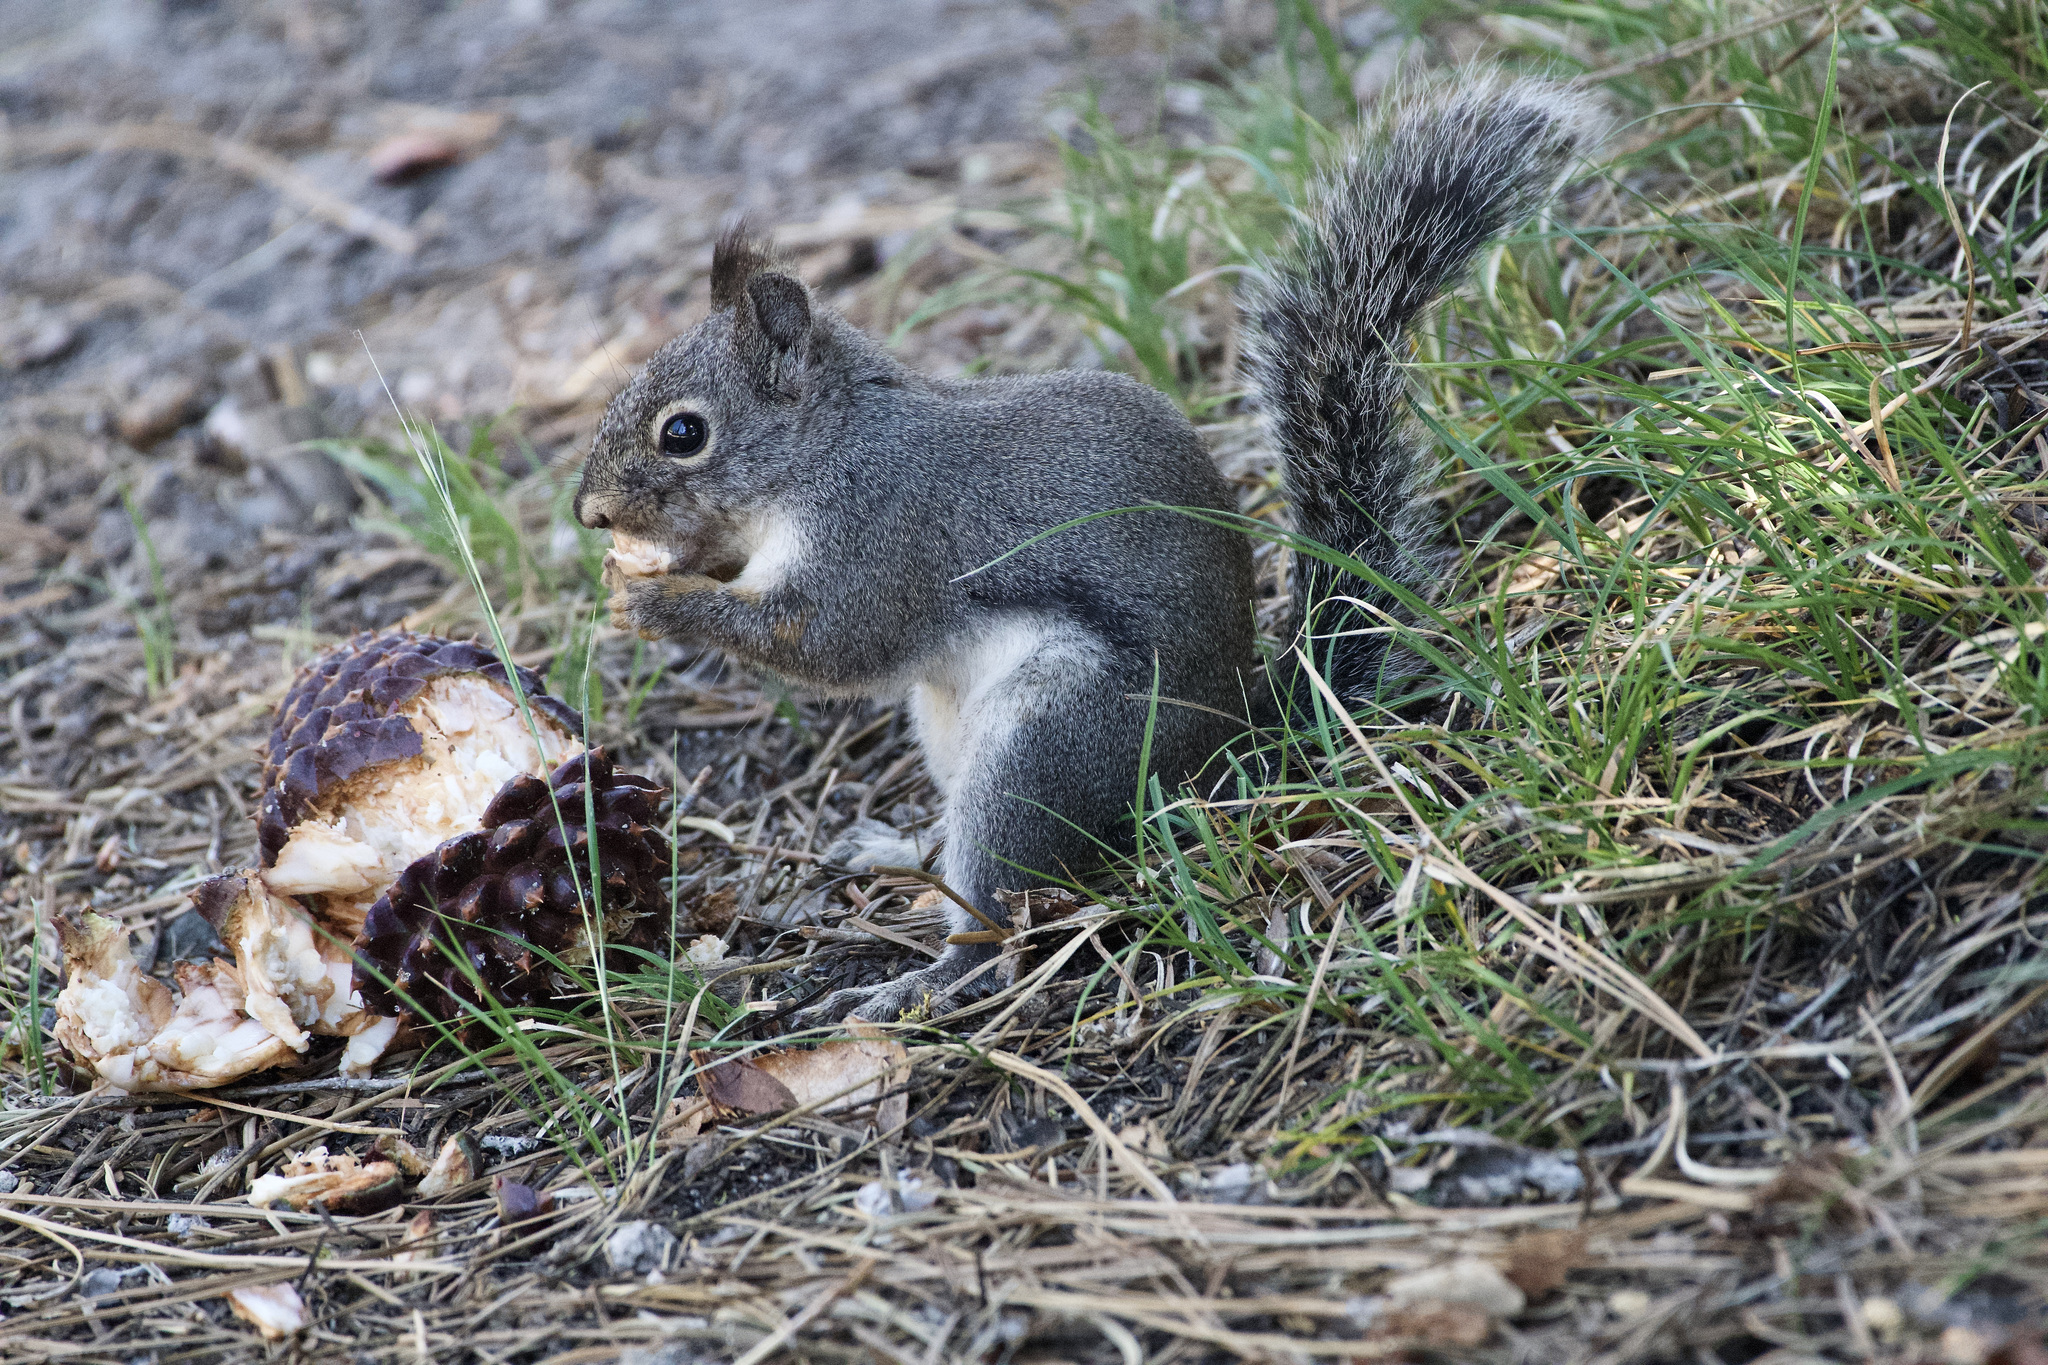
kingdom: Animalia
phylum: Chordata
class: Mammalia
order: Rodentia
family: Sciuridae
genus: Tamiasciurus
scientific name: Tamiasciurus douglasii
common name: Douglas's squirrel
